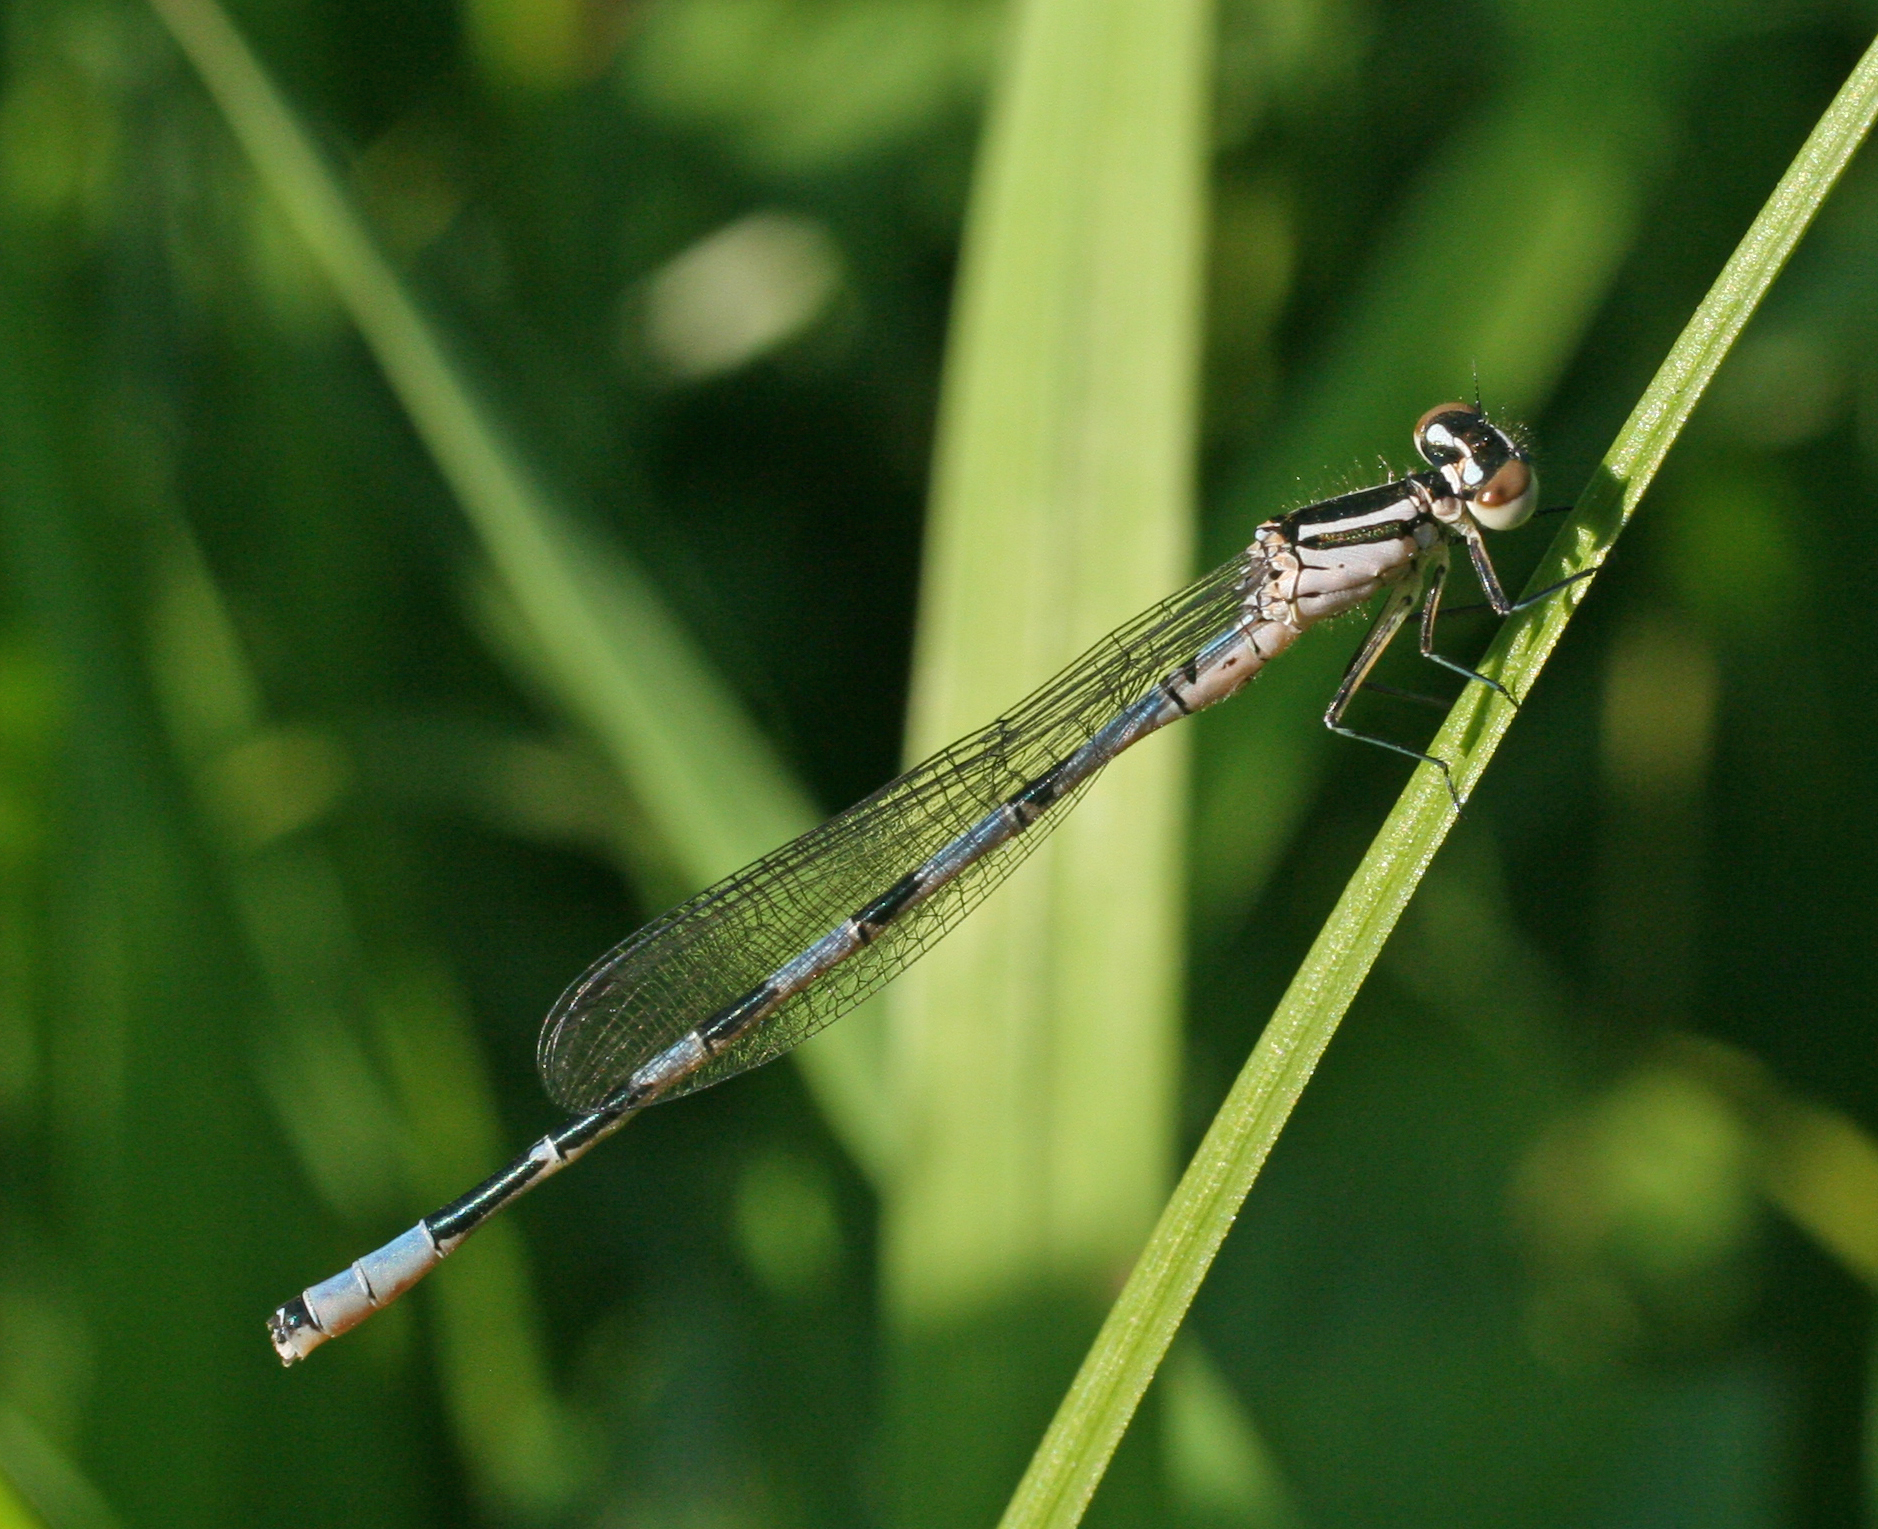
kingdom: Animalia
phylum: Arthropoda
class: Insecta
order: Odonata
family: Coenagrionidae
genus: Coenagrion
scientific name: Coenagrion hastulatum
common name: Spearhead bluet
